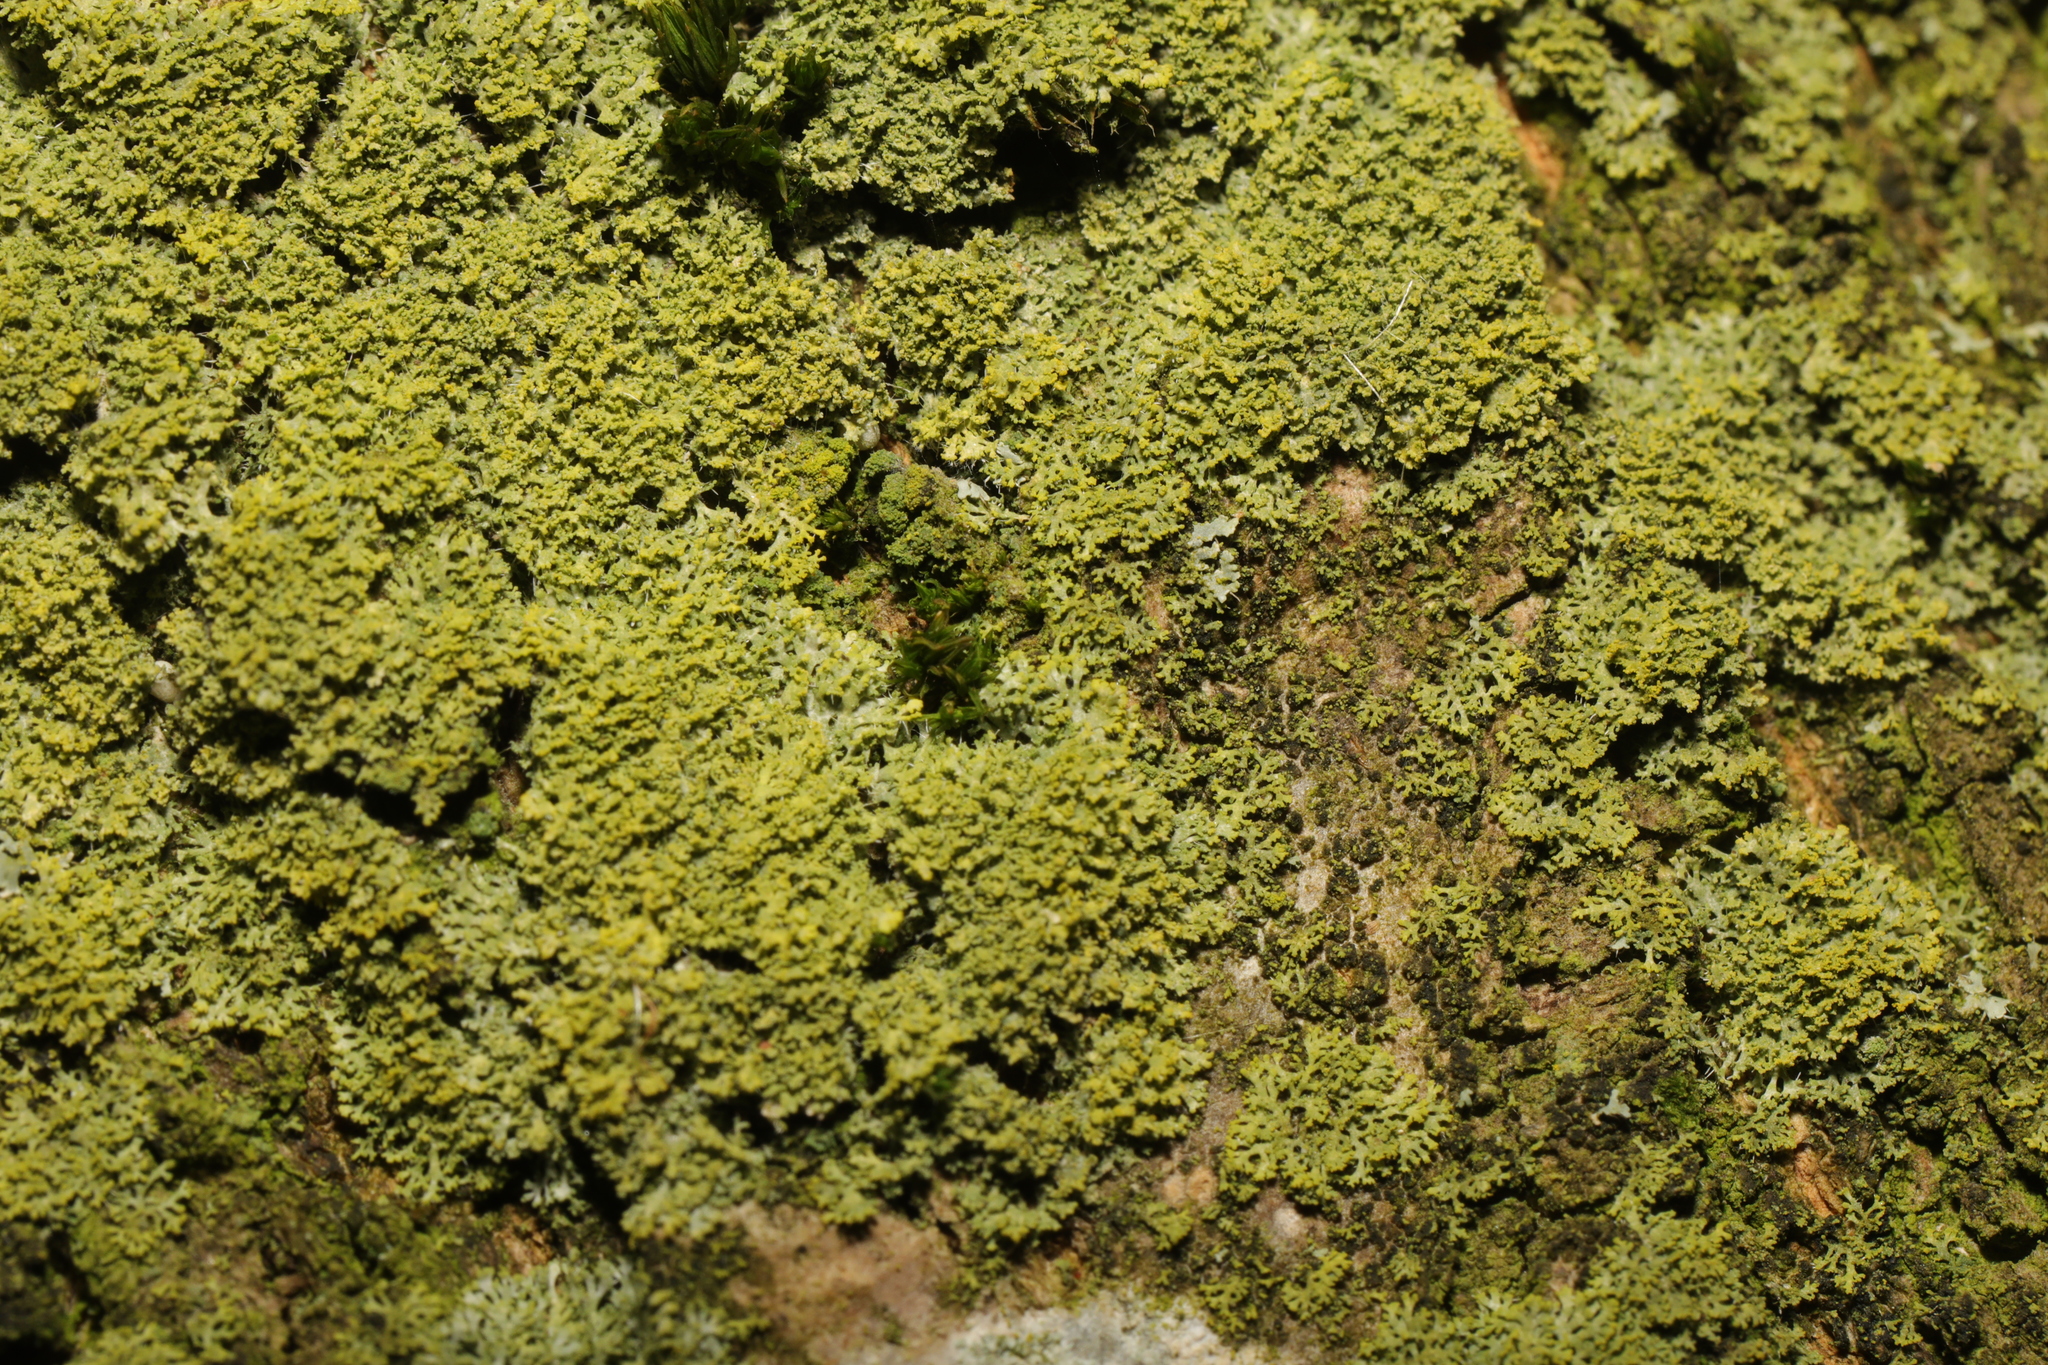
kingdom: Fungi
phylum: Ascomycota
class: Candelariomycetes
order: Candelariales
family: Candelariaceae
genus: Candelaria
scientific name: Candelaria concolor
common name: Candleflame lichen
